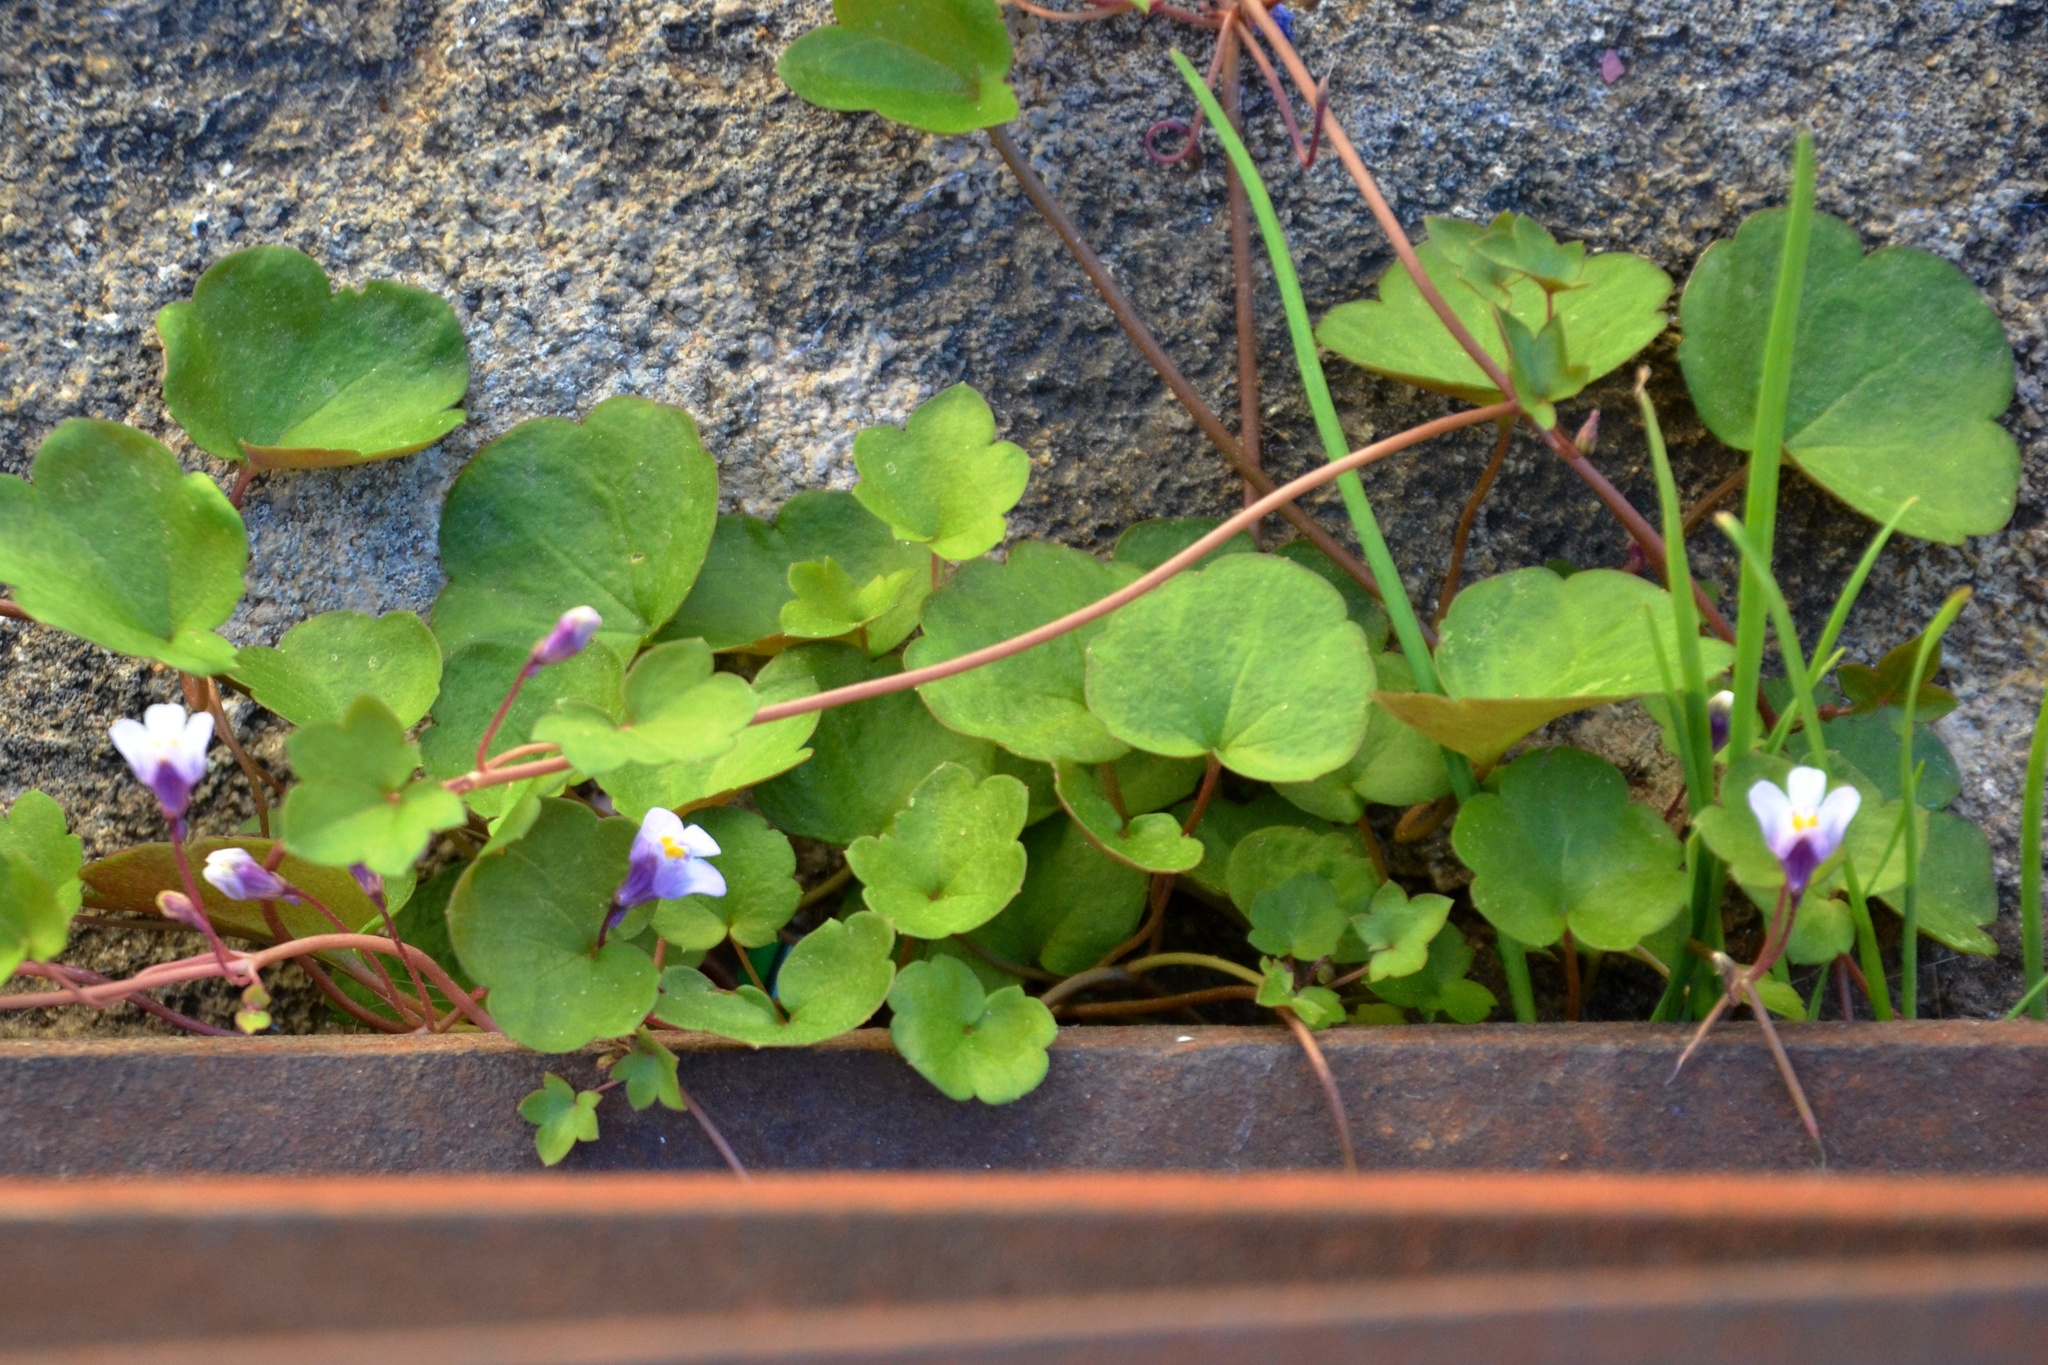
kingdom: Plantae
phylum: Tracheophyta
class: Magnoliopsida
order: Lamiales
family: Plantaginaceae
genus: Cymbalaria
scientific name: Cymbalaria muralis
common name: Ivy-leaved toadflax
